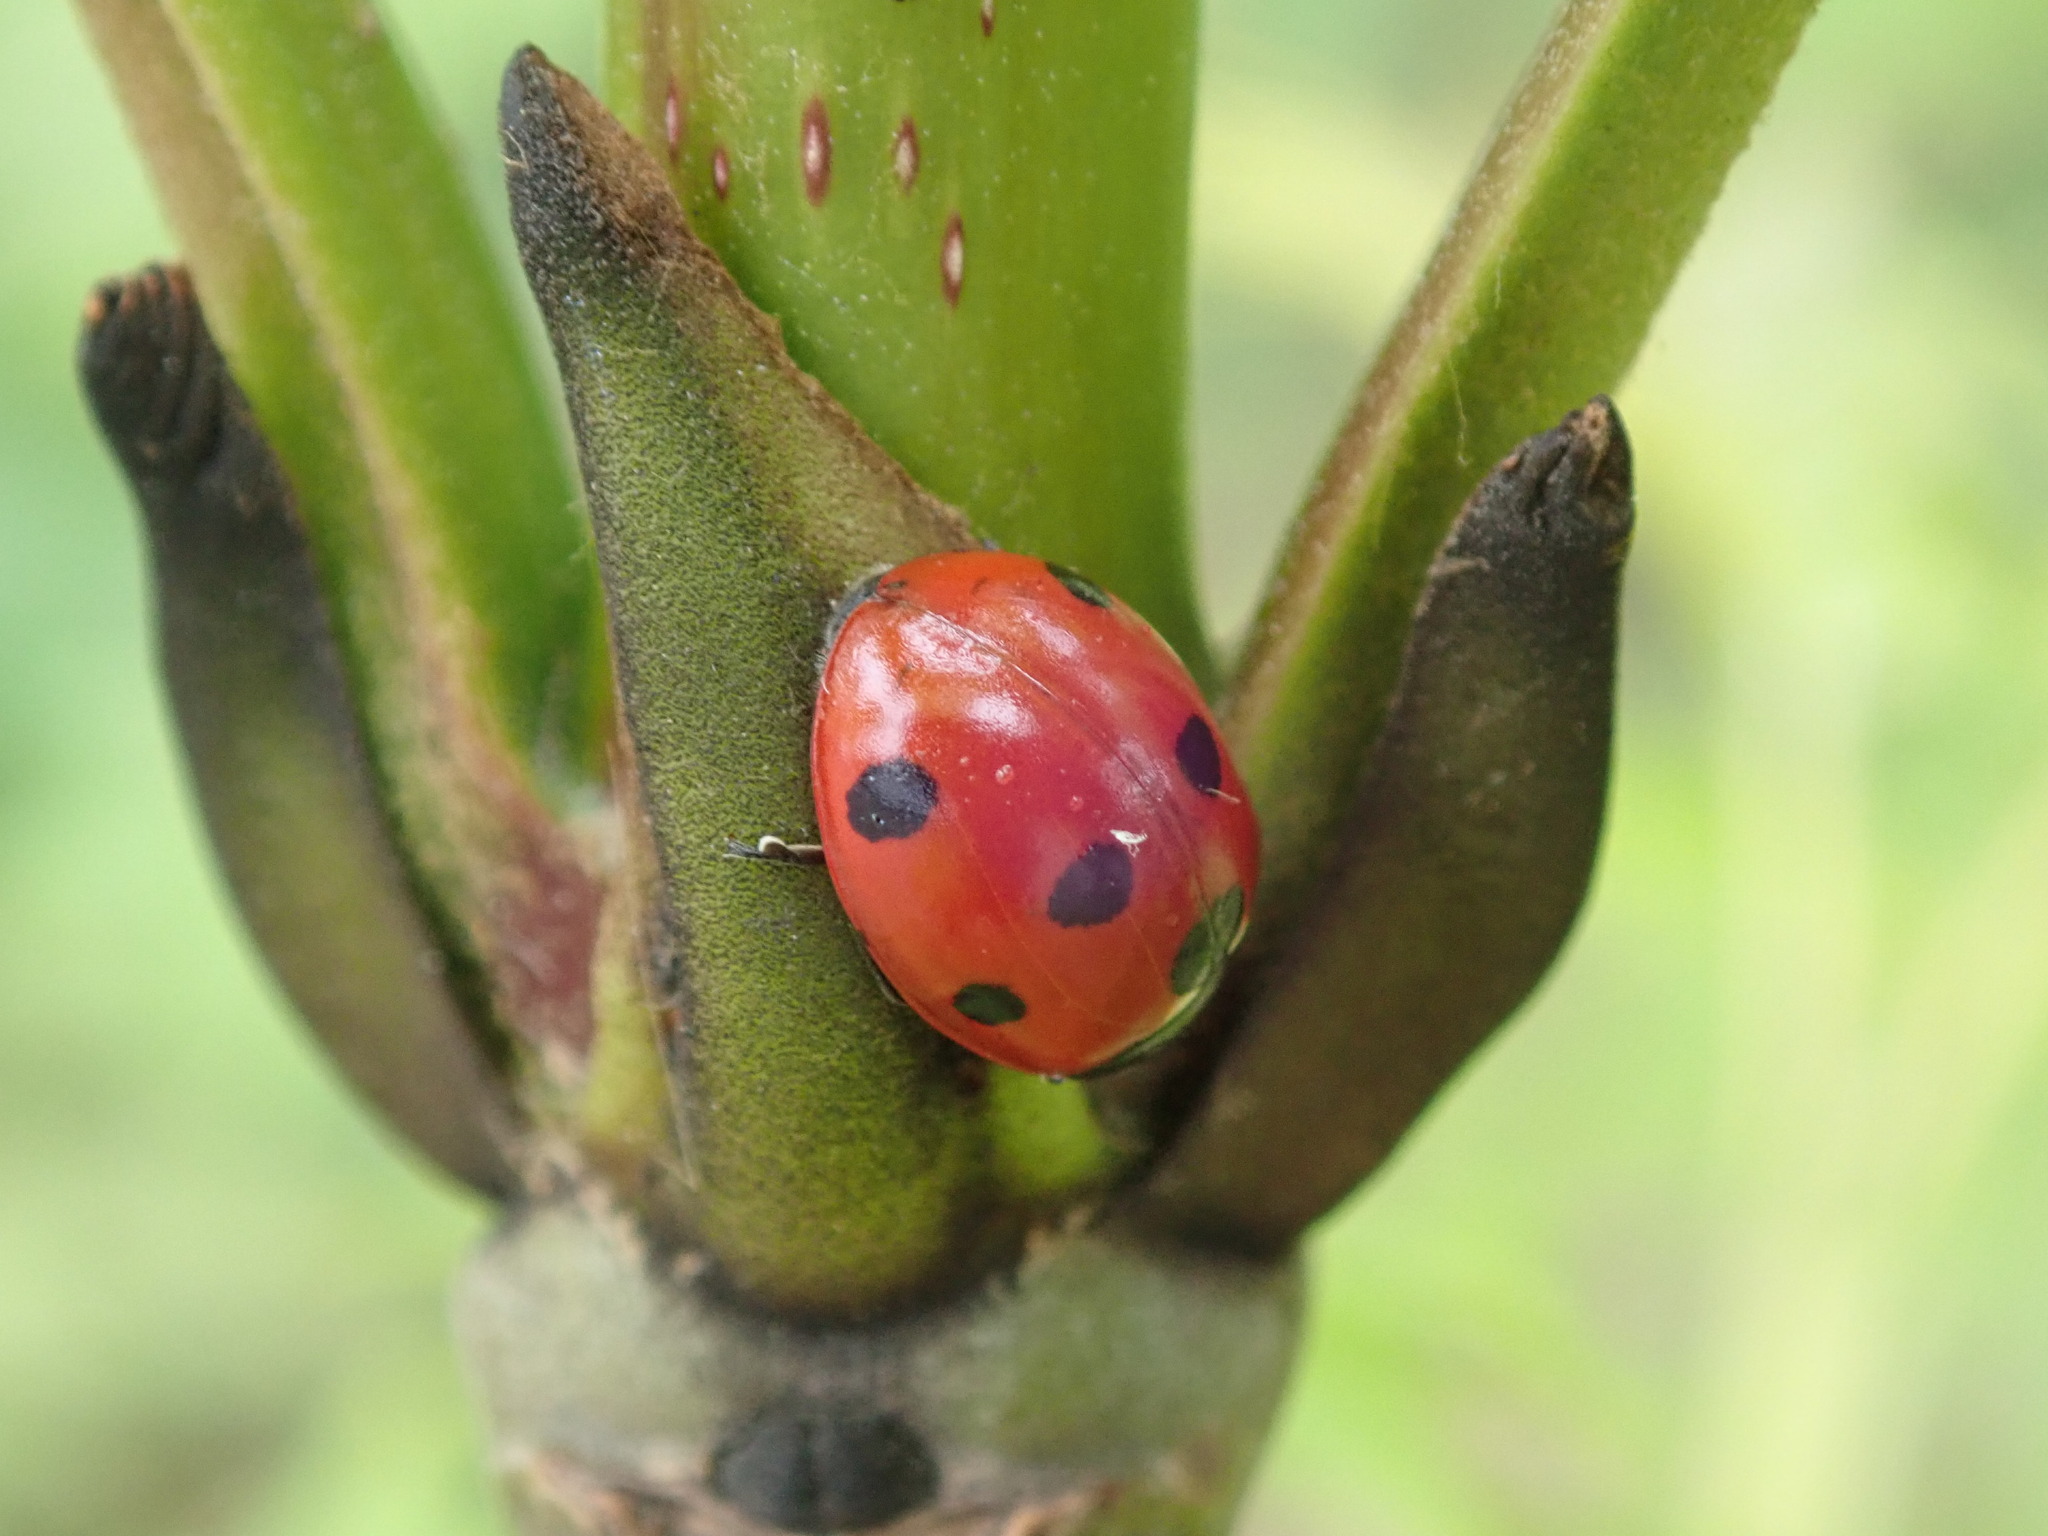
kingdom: Animalia
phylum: Arthropoda
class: Insecta
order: Coleoptera
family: Coccinellidae
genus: Coccinella
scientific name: Coccinella septempunctata
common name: Sevenspotted lady beetle
